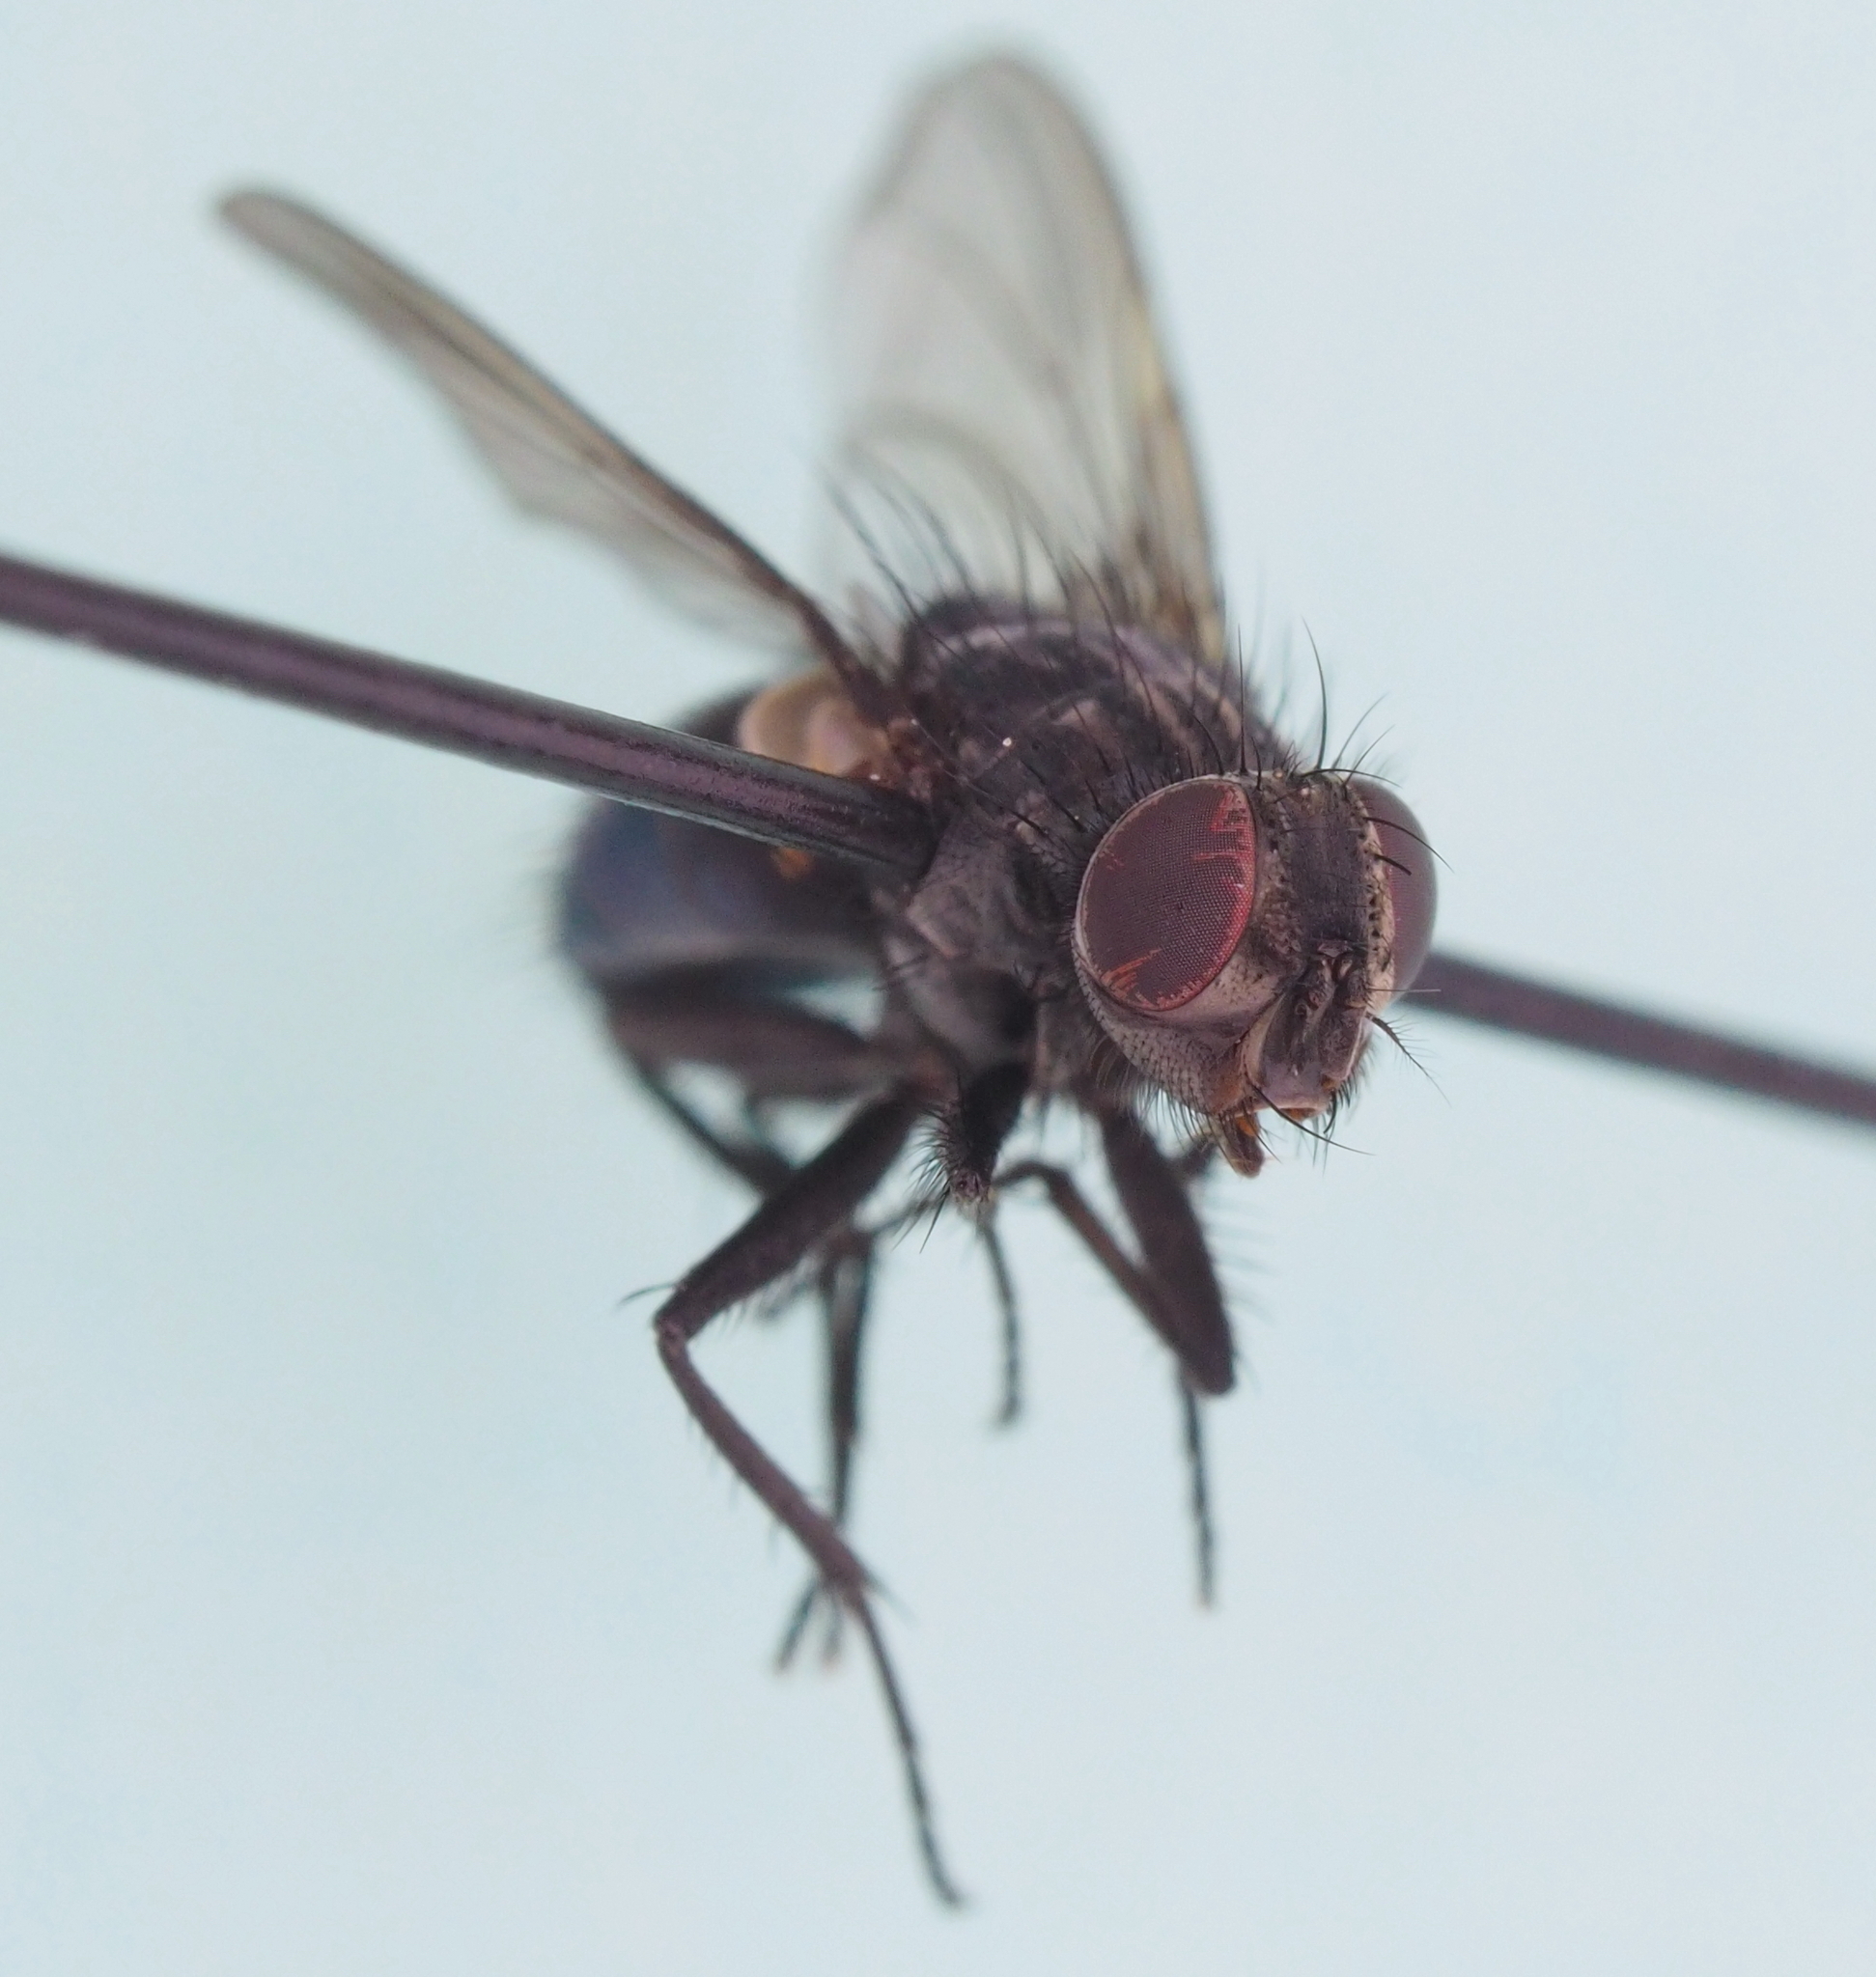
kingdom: Animalia
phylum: Arthropoda
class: Insecta
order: Diptera
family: Calliphoridae
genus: Bellardia
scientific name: Bellardia bayeri
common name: Bayer's emerald bottle fly
